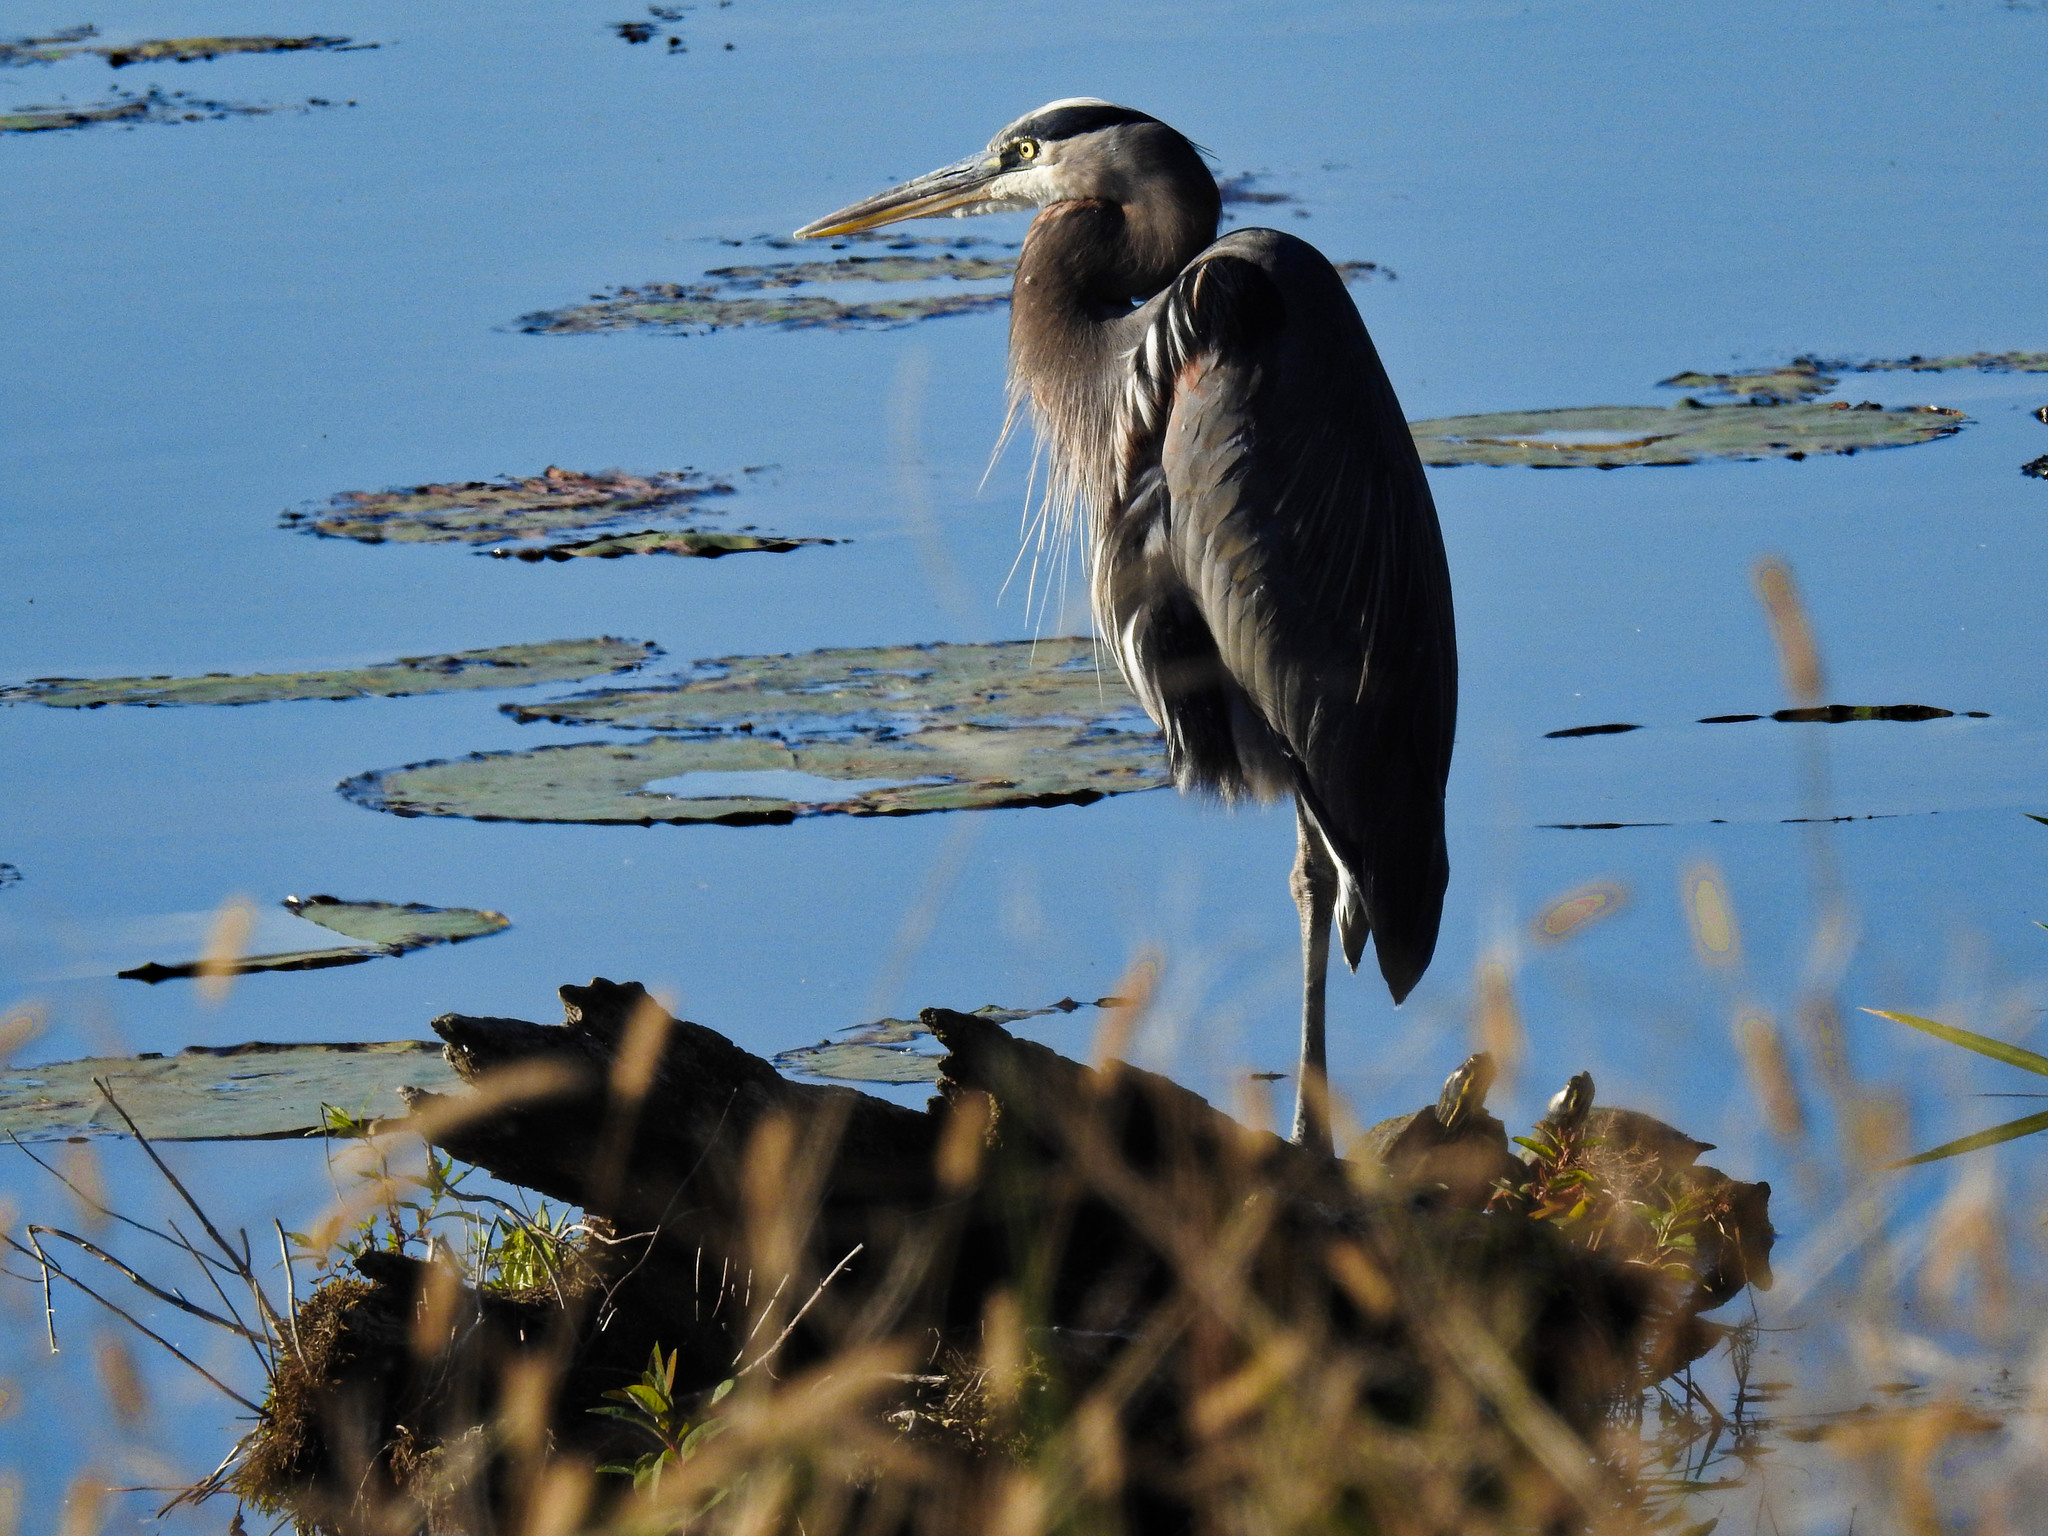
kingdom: Animalia
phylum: Chordata
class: Aves
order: Pelecaniformes
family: Ardeidae
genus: Ardea
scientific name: Ardea herodias
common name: Great blue heron
